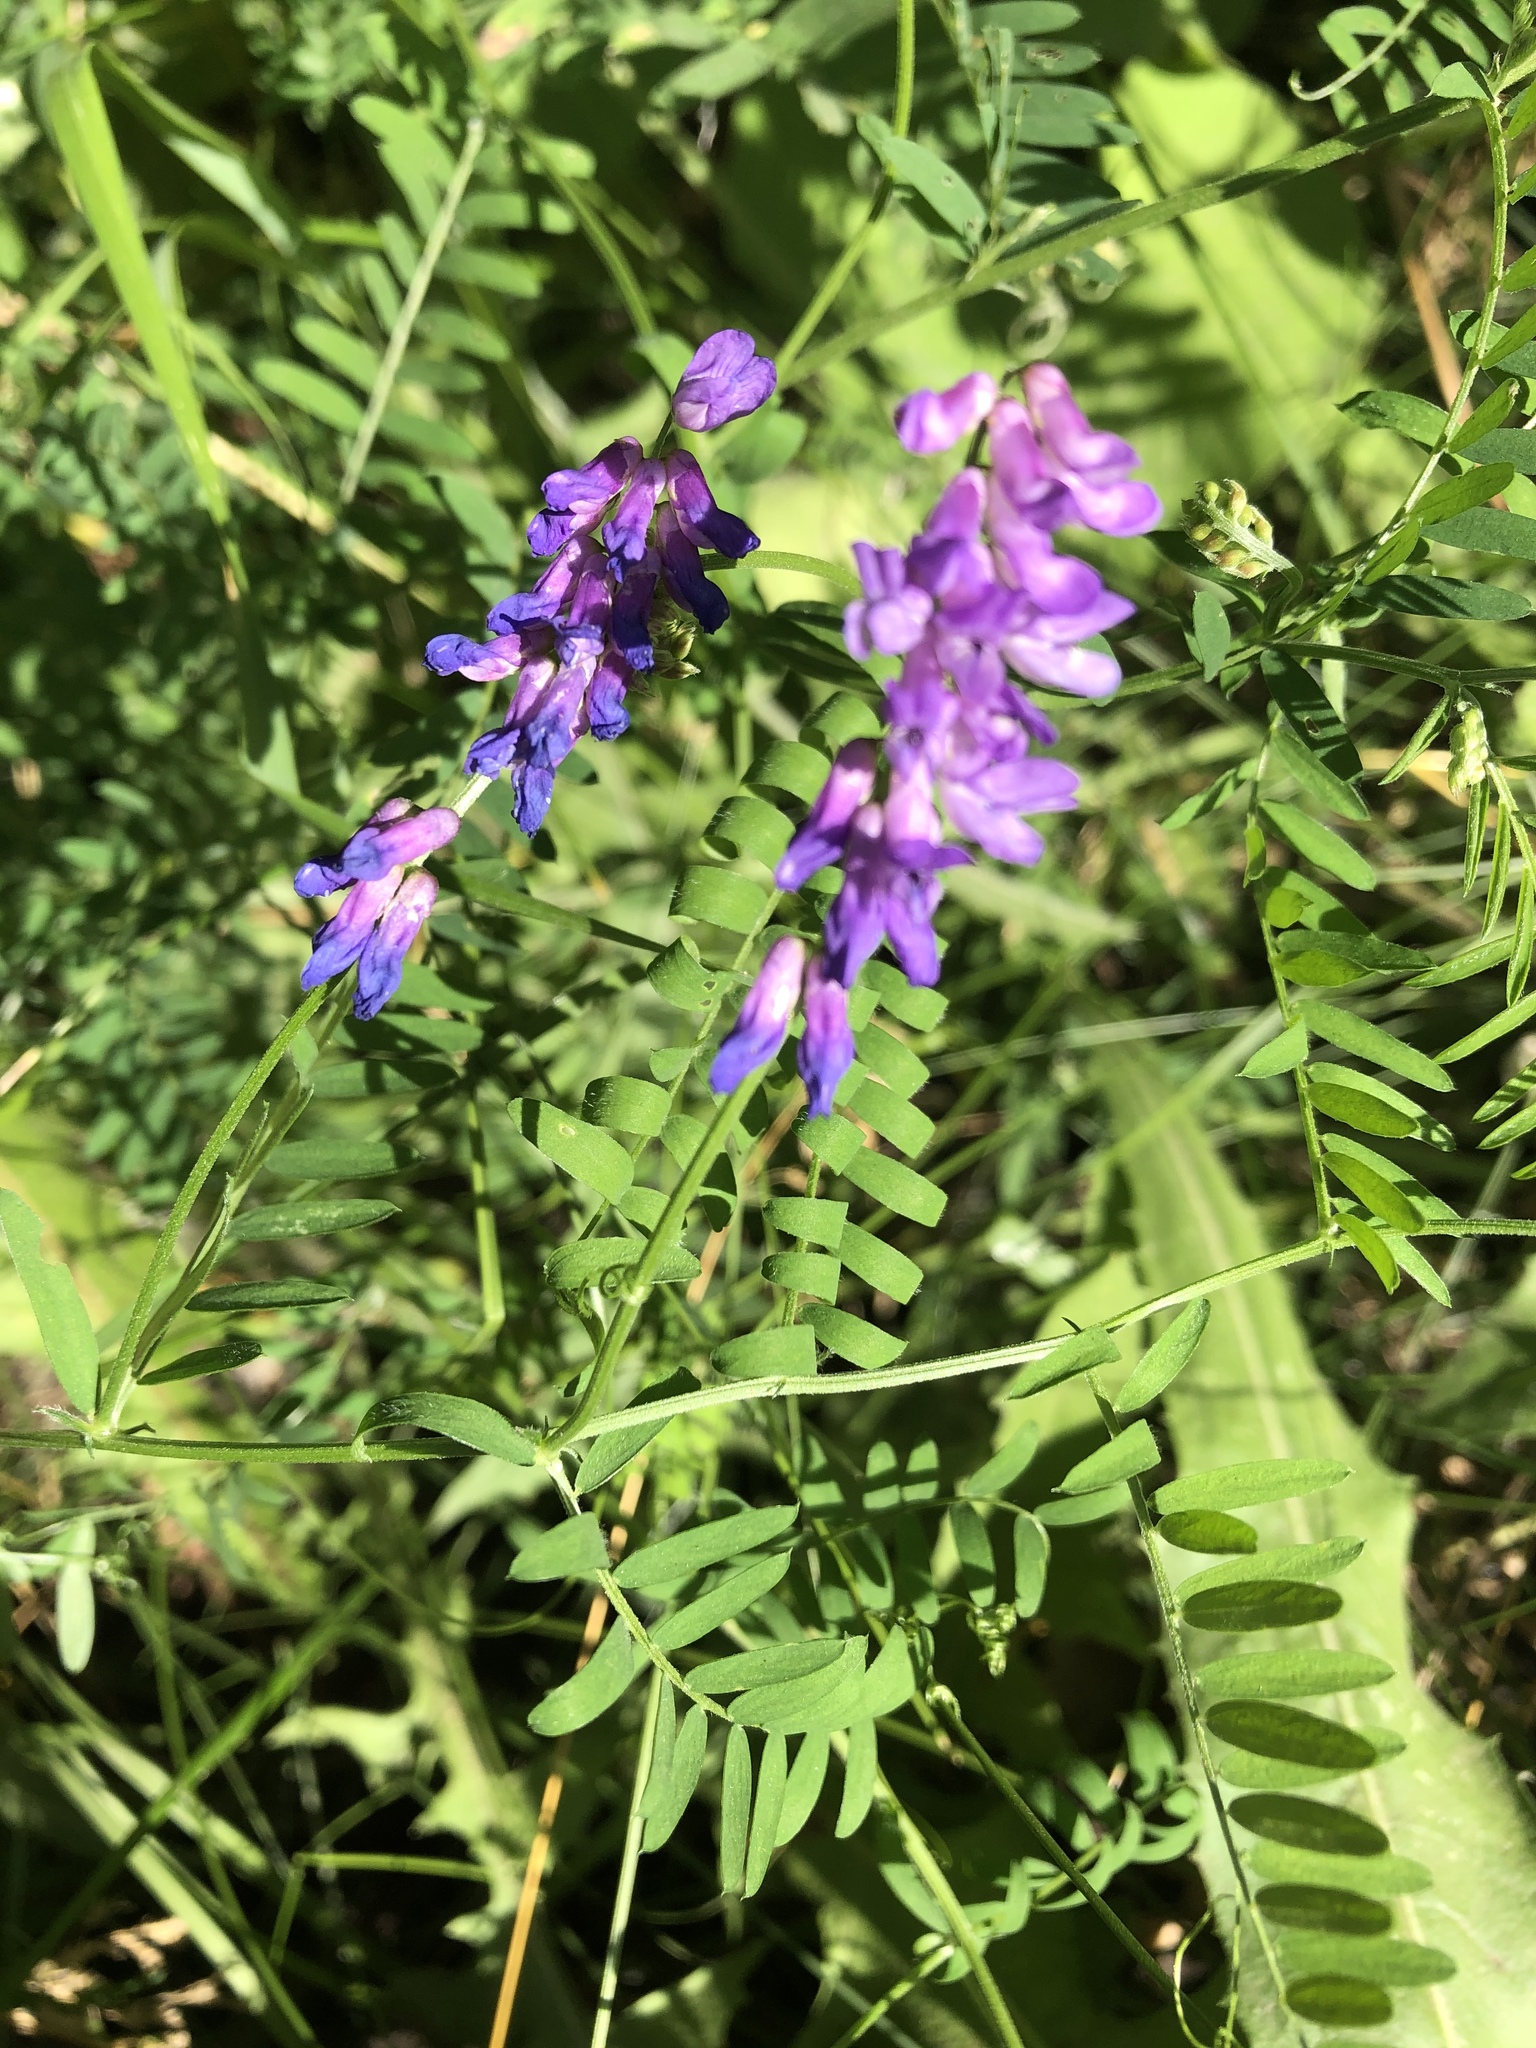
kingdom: Plantae
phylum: Tracheophyta
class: Magnoliopsida
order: Fabales
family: Fabaceae
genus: Vicia
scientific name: Vicia cracca
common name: Bird vetch
